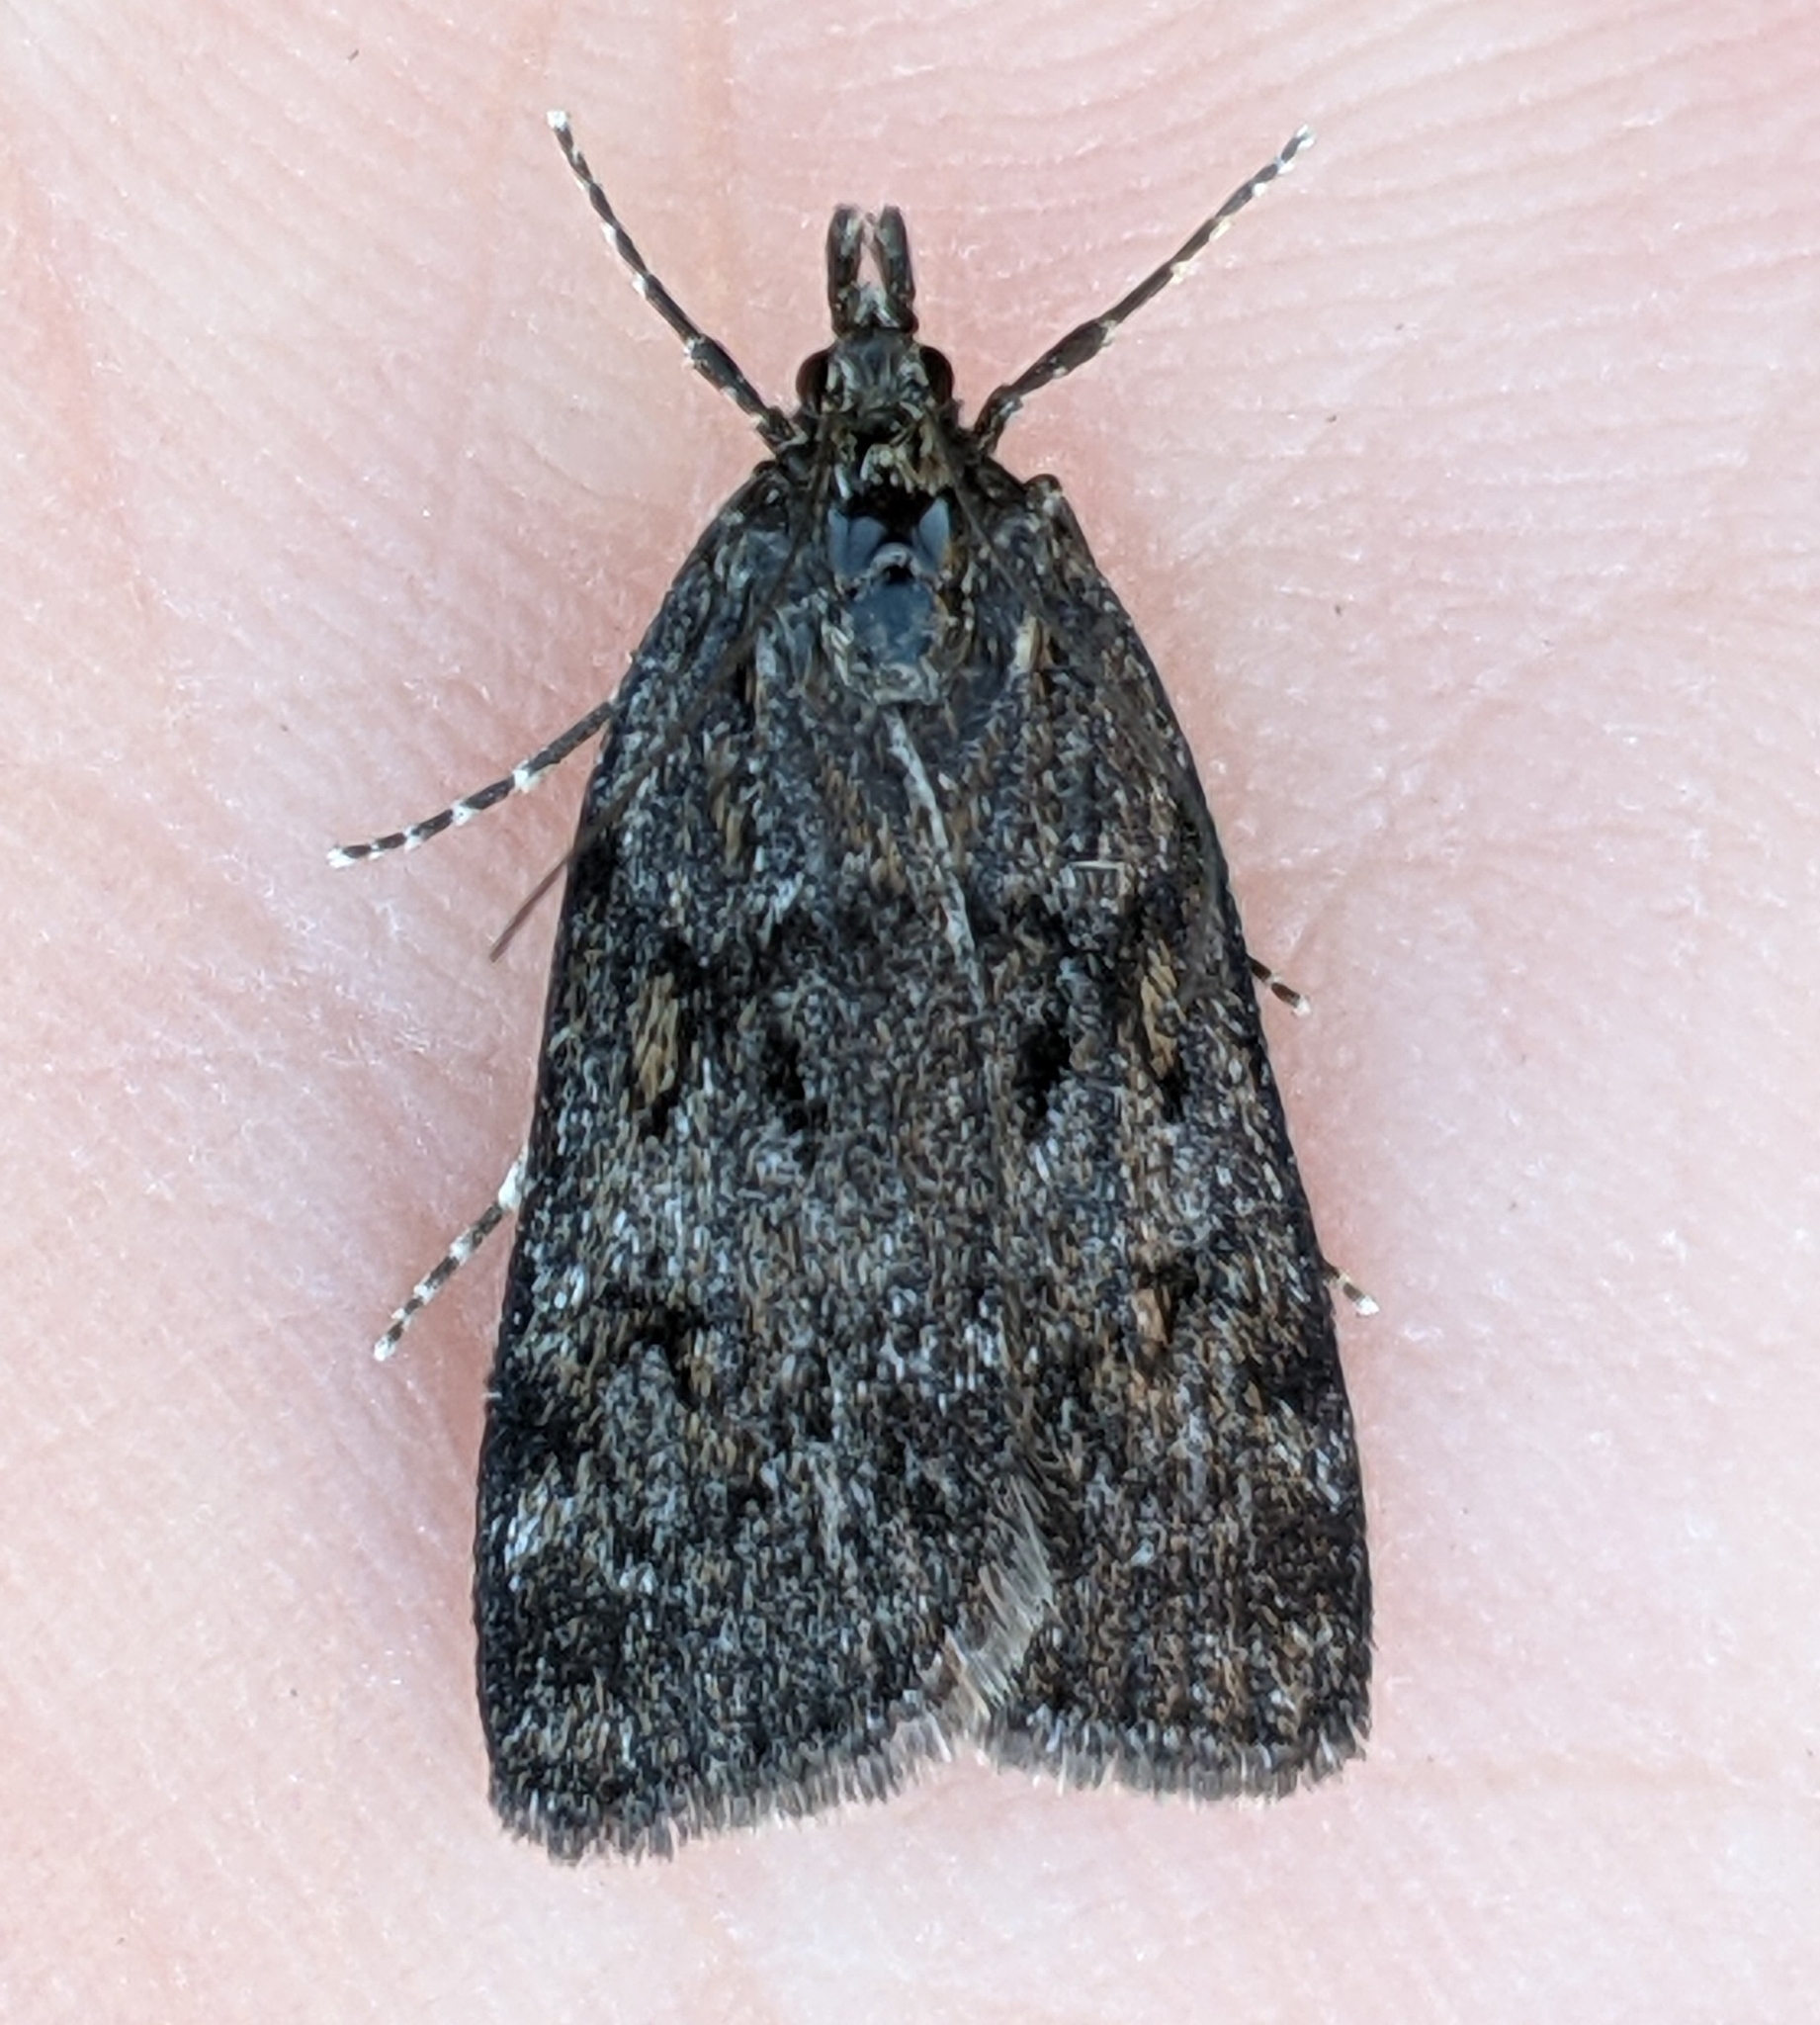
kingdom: Animalia
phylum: Arthropoda
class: Insecta
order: Lepidoptera
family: Crambidae
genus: Gesneria
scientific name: Gesneria centuriella
